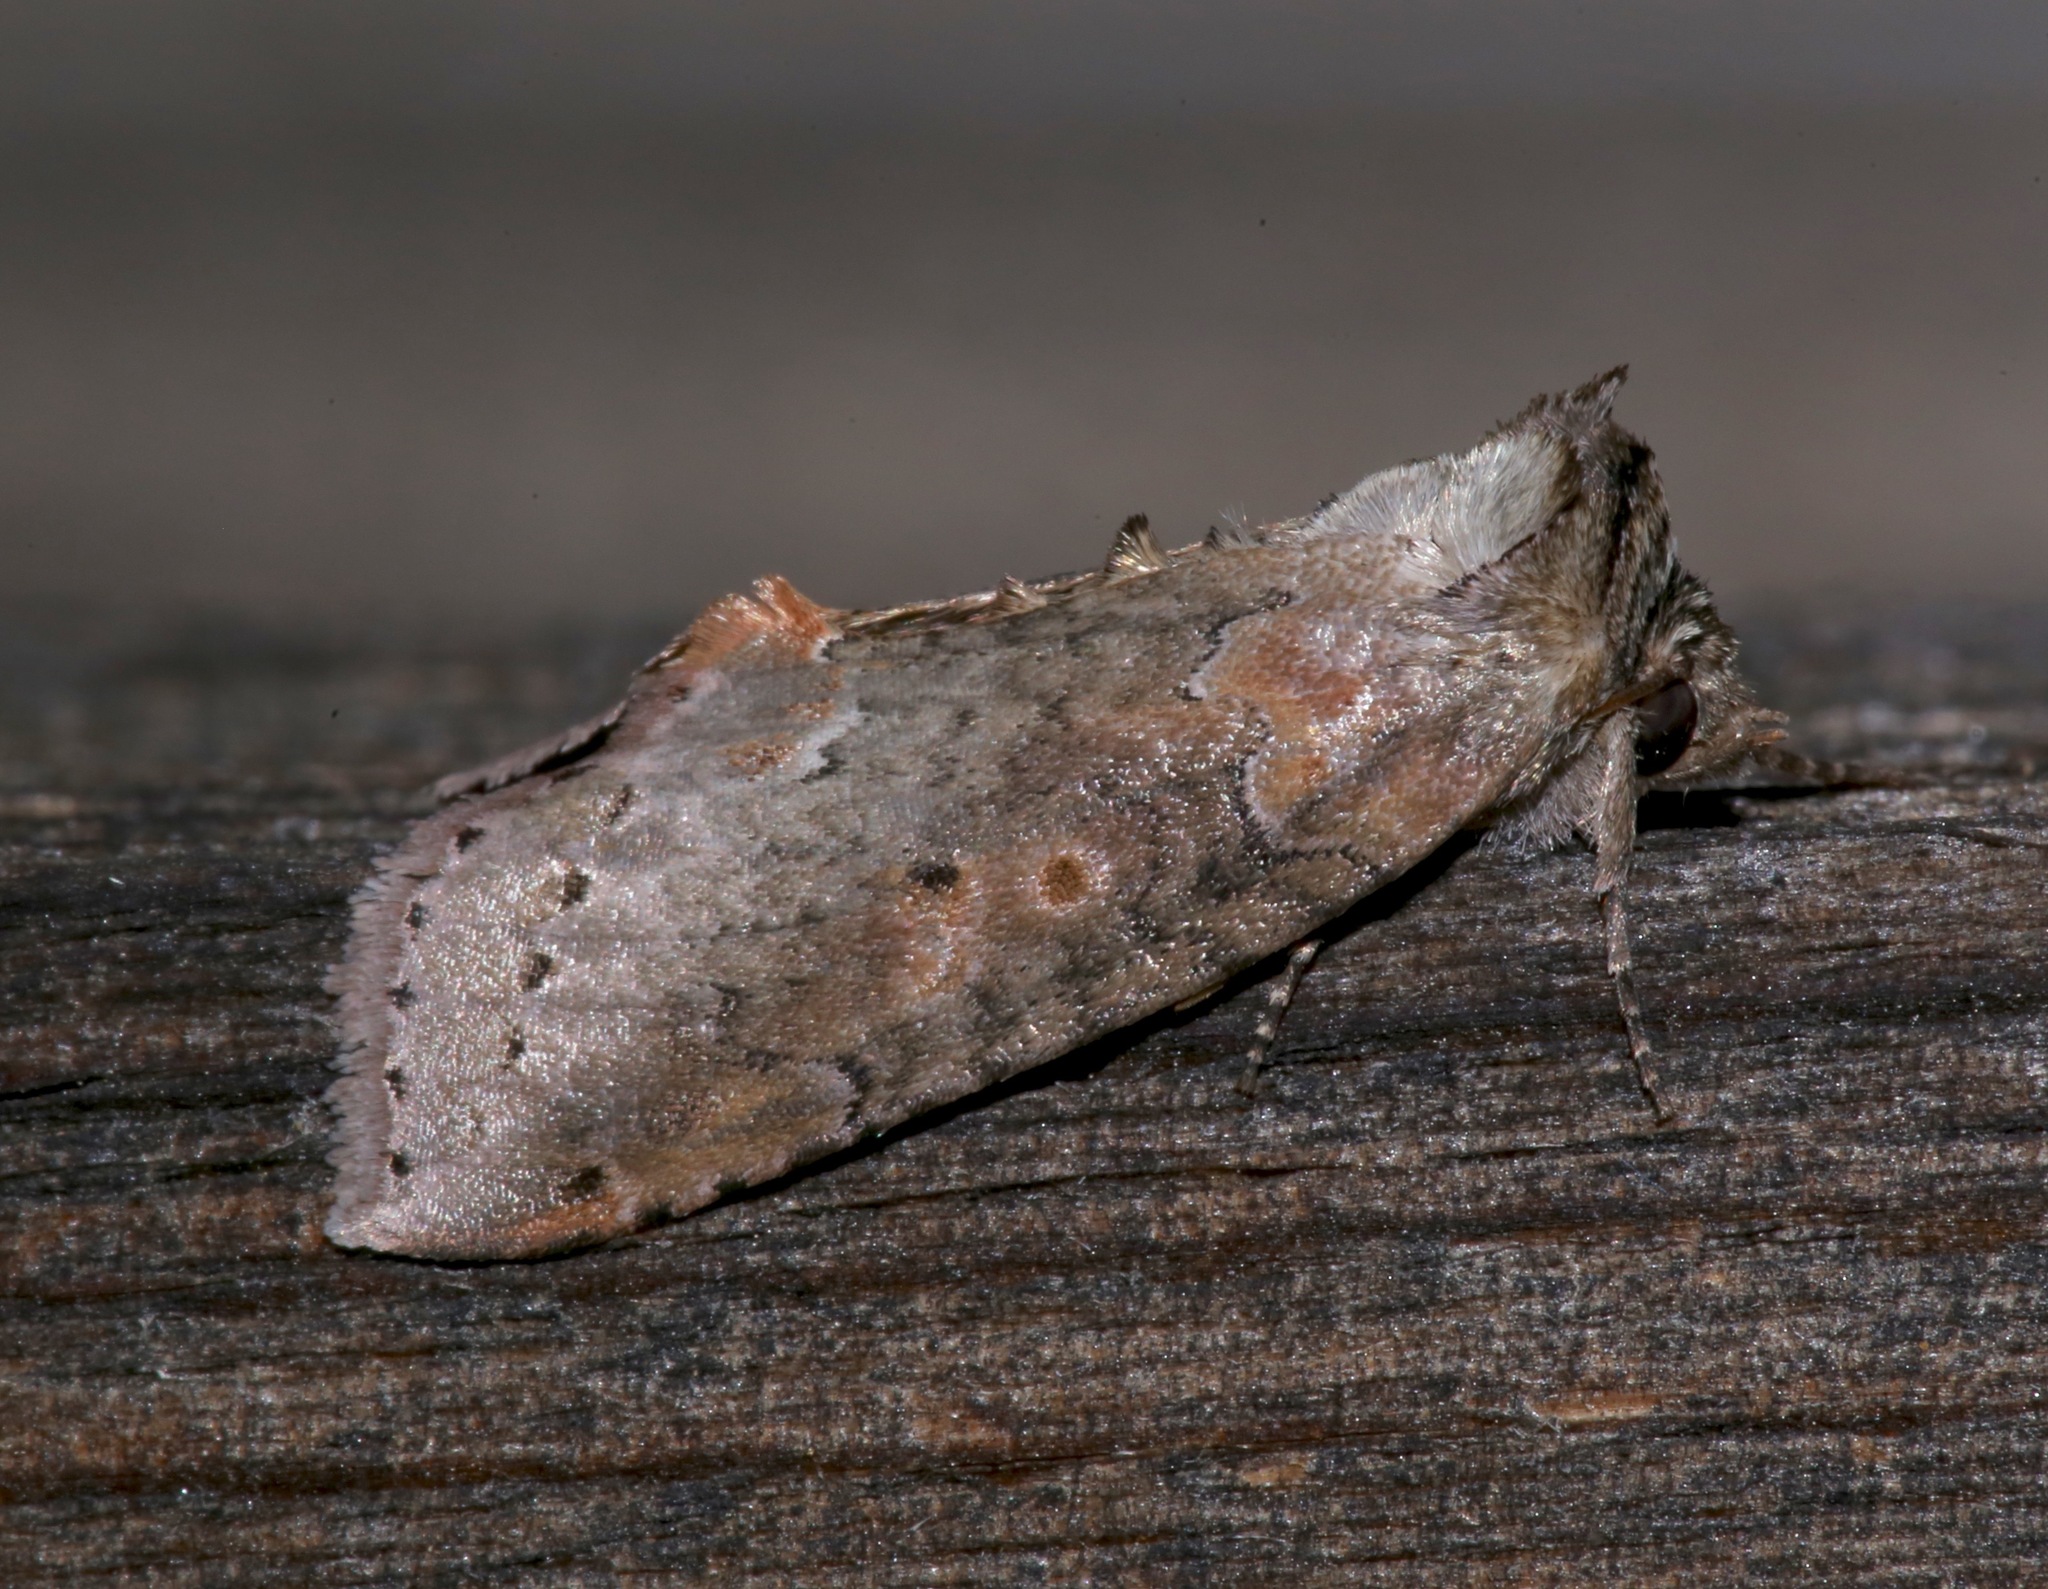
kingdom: Animalia
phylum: Arthropoda
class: Insecta
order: Lepidoptera
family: Drepanidae
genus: Pseudothyatira
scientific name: Pseudothyatira cymatophoroides
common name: Tufted thyatirid moth
